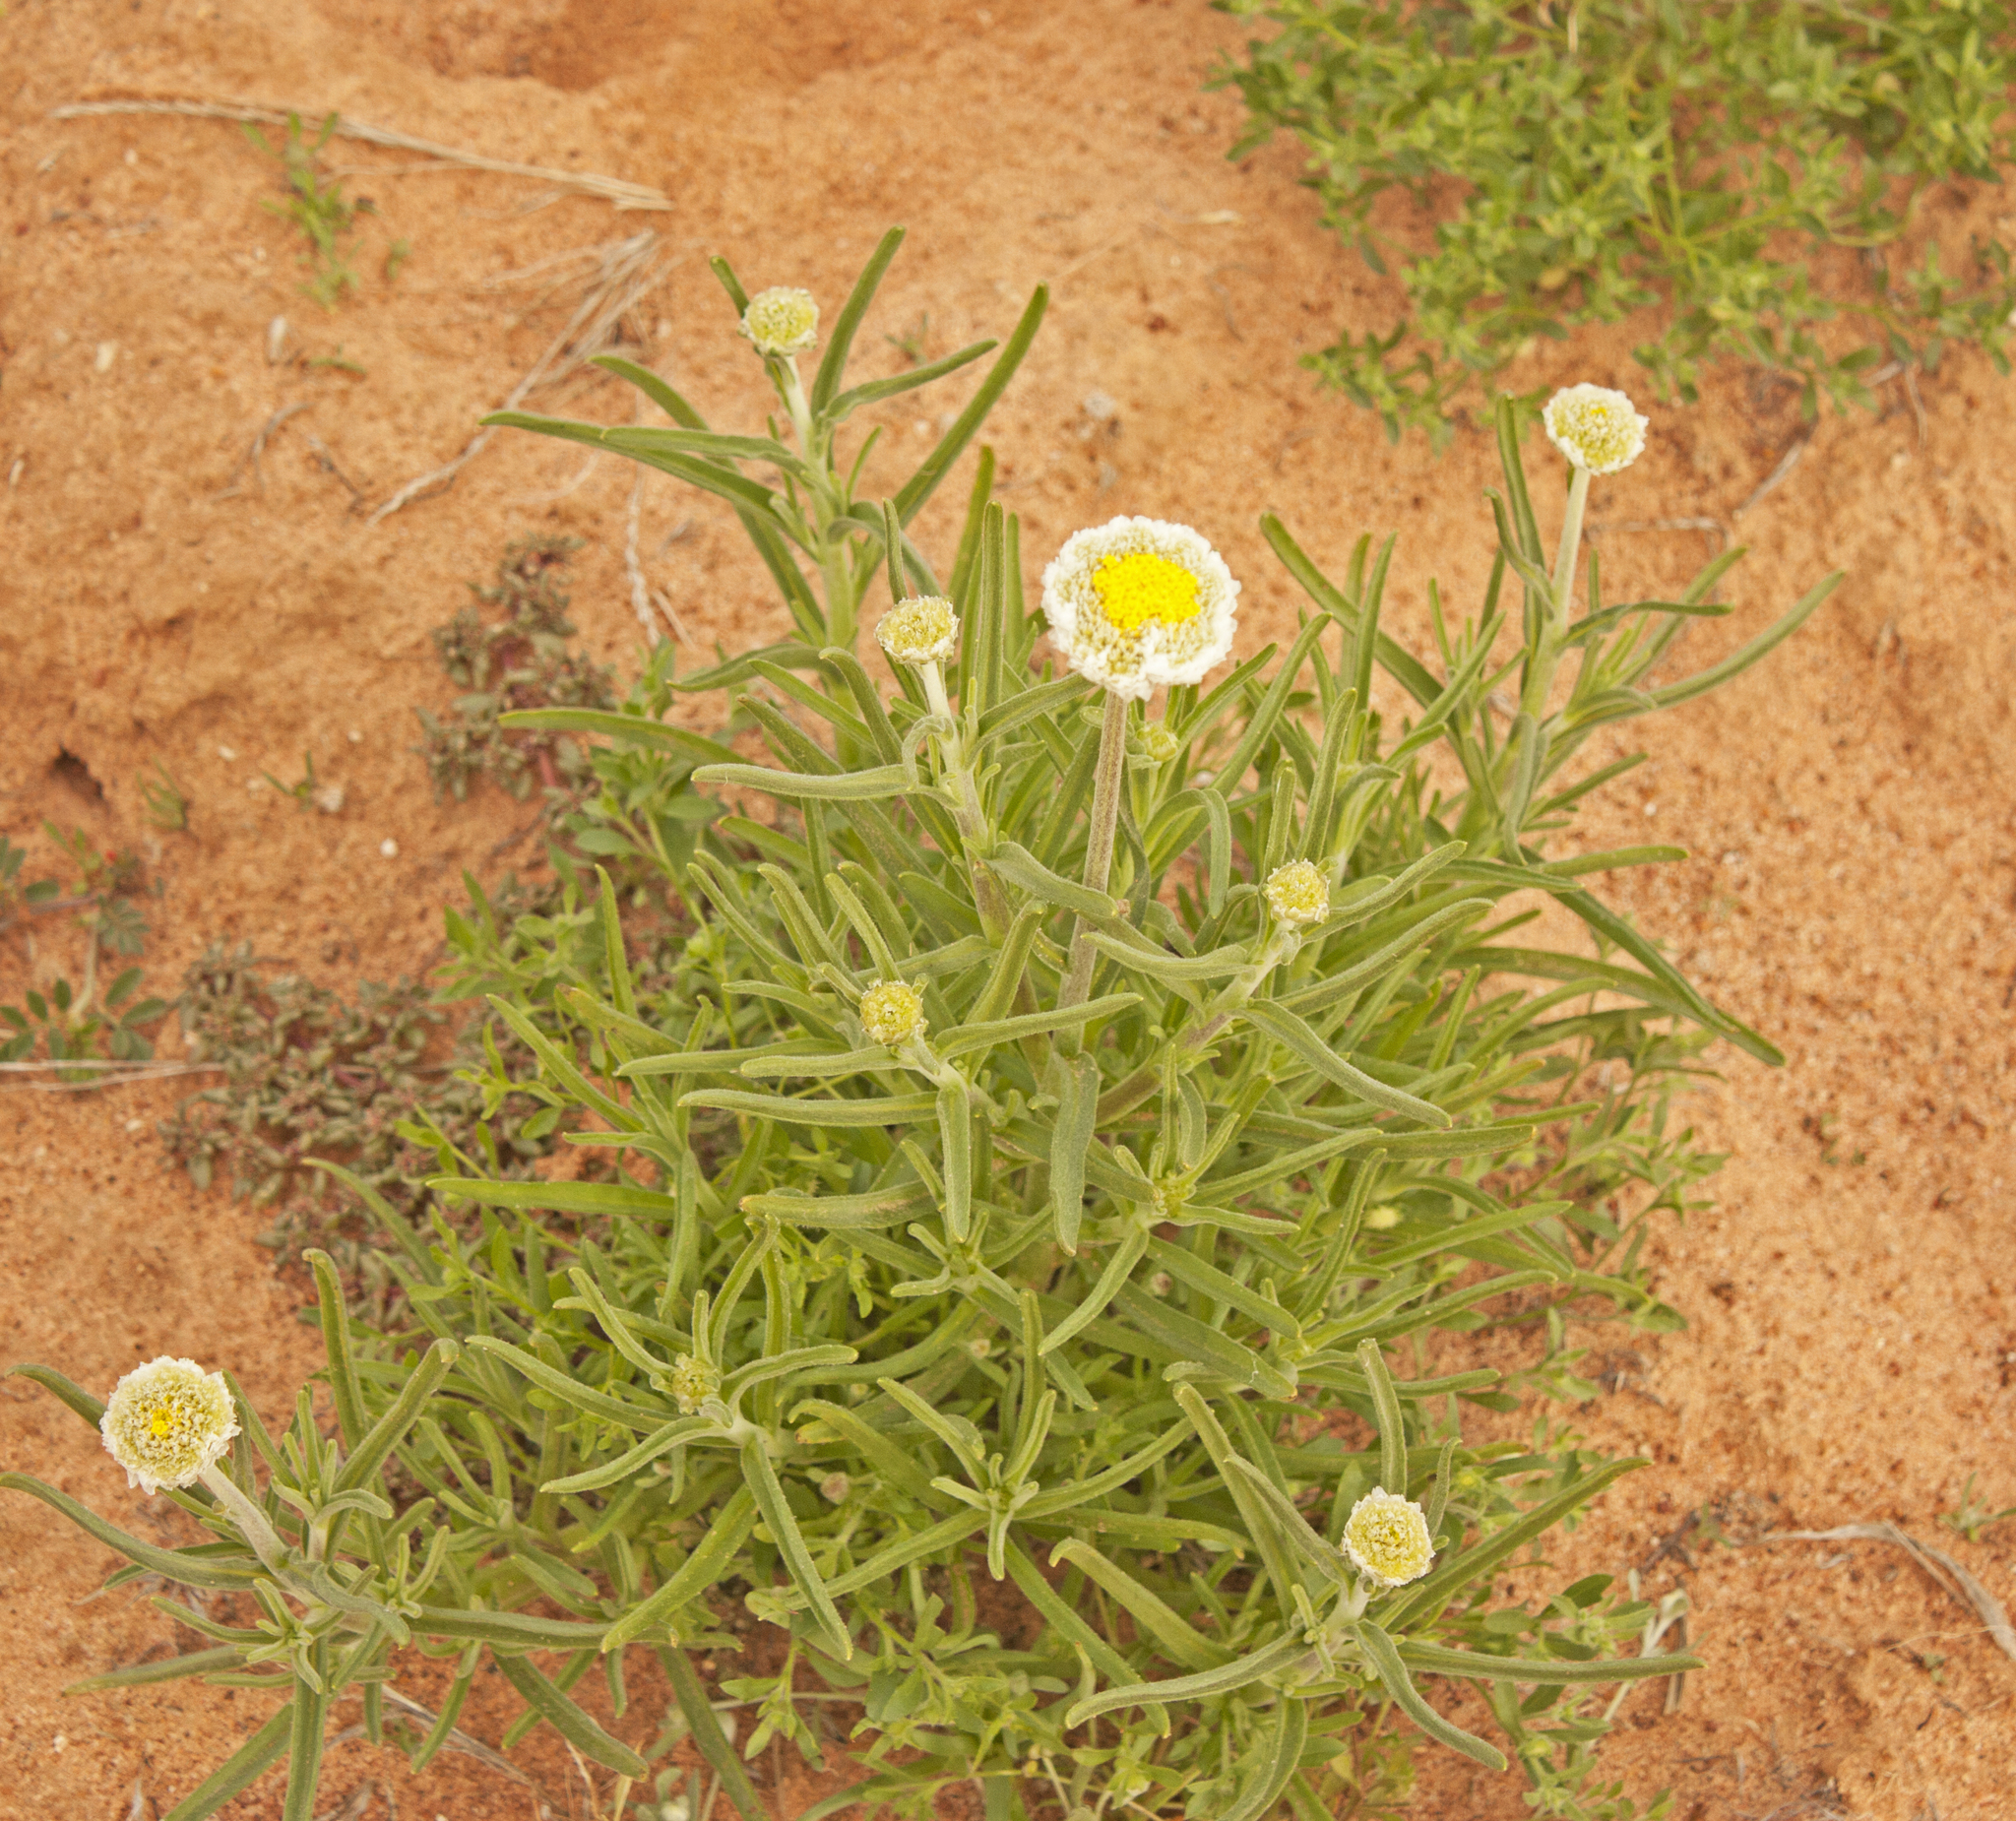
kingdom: Plantae
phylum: Tracheophyta
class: Magnoliopsida
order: Asterales
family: Asteraceae
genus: Polycalymma
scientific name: Polycalymma stuartii
